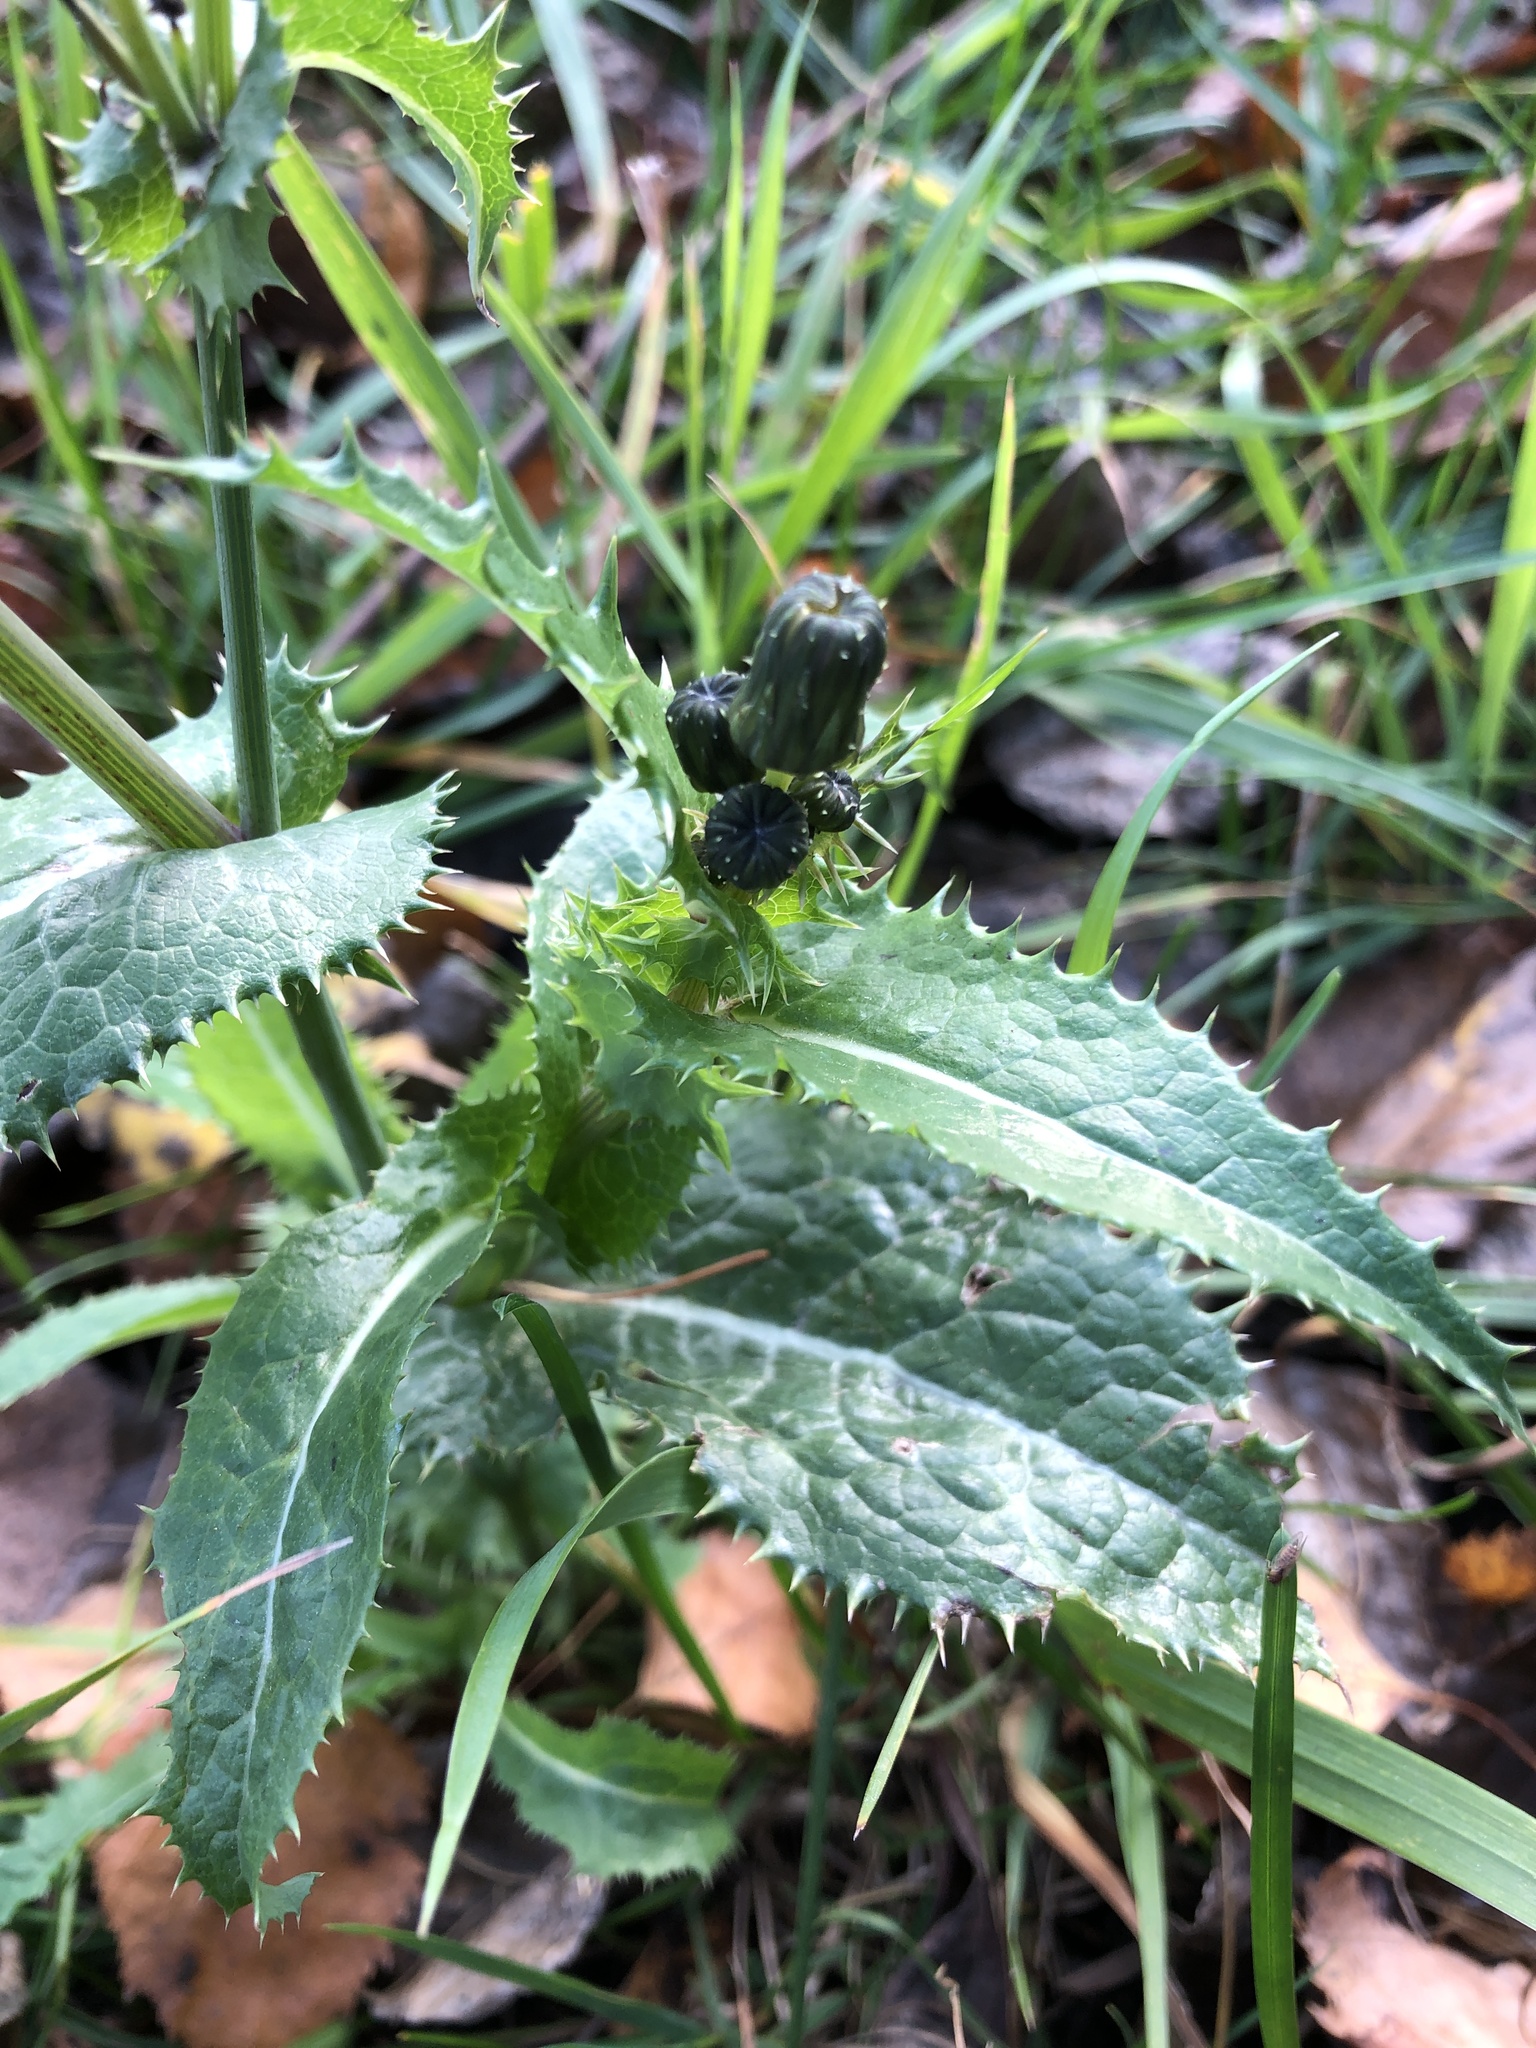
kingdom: Plantae
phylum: Tracheophyta
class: Magnoliopsida
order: Asterales
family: Asteraceae
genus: Sonchus
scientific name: Sonchus asper
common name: Prickly sow-thistle
